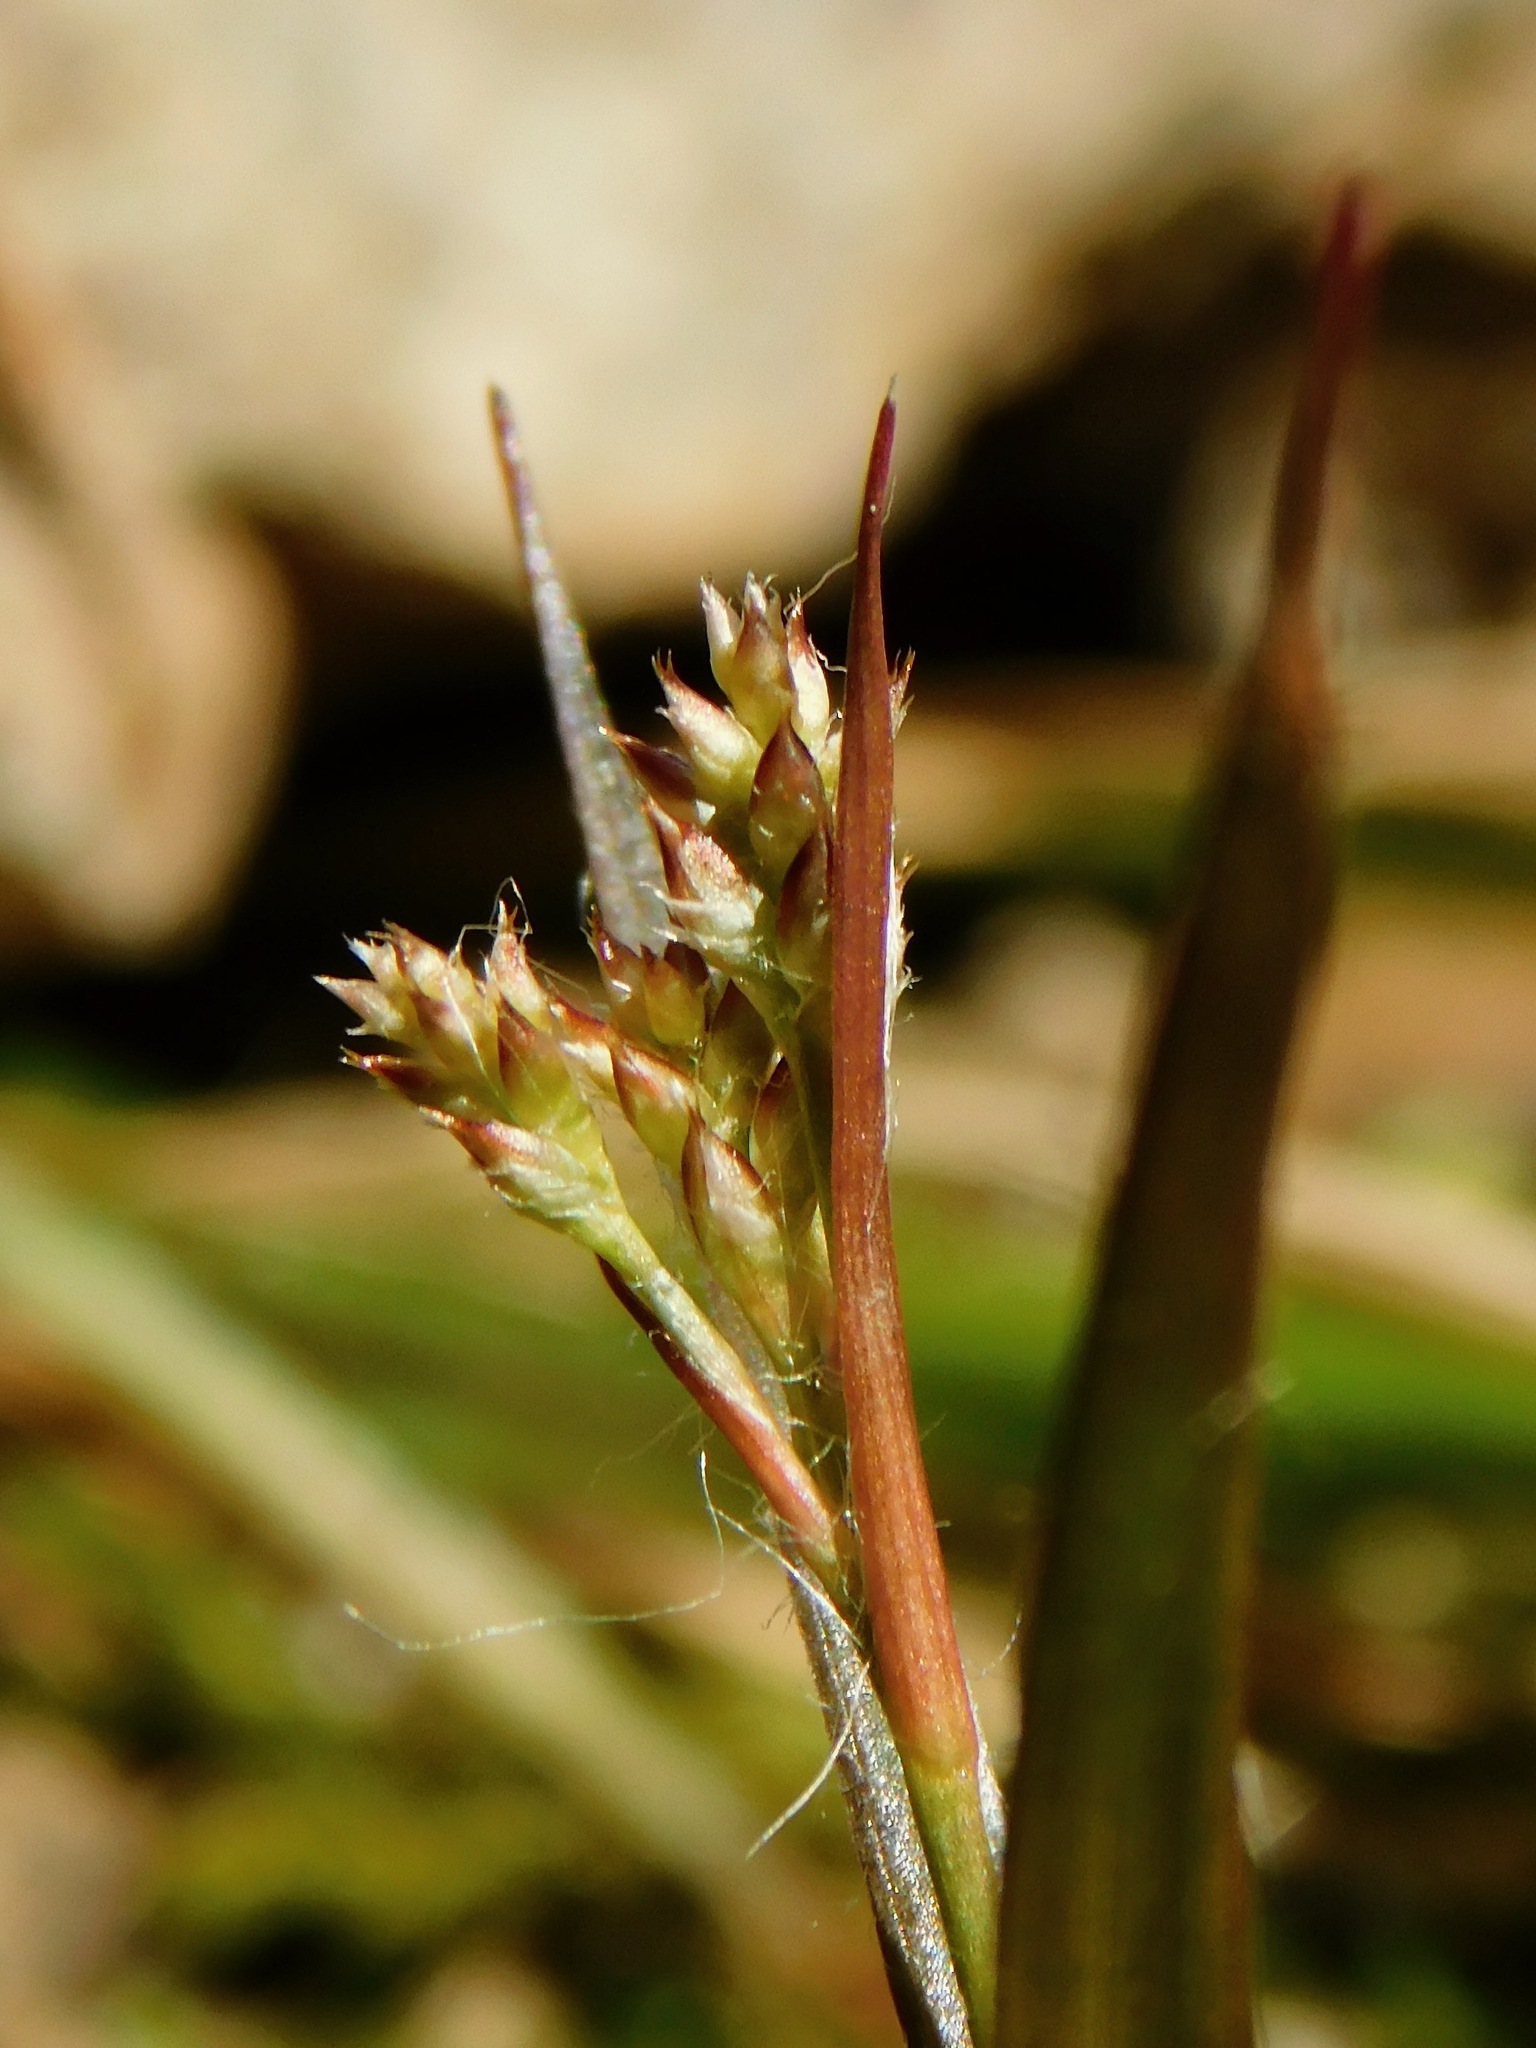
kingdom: Plantae
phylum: Tracheophyta
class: Liliopsida
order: Poales
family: Juncaceae
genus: Luzula
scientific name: Luzula echinata
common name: Hedgehog woodrush
